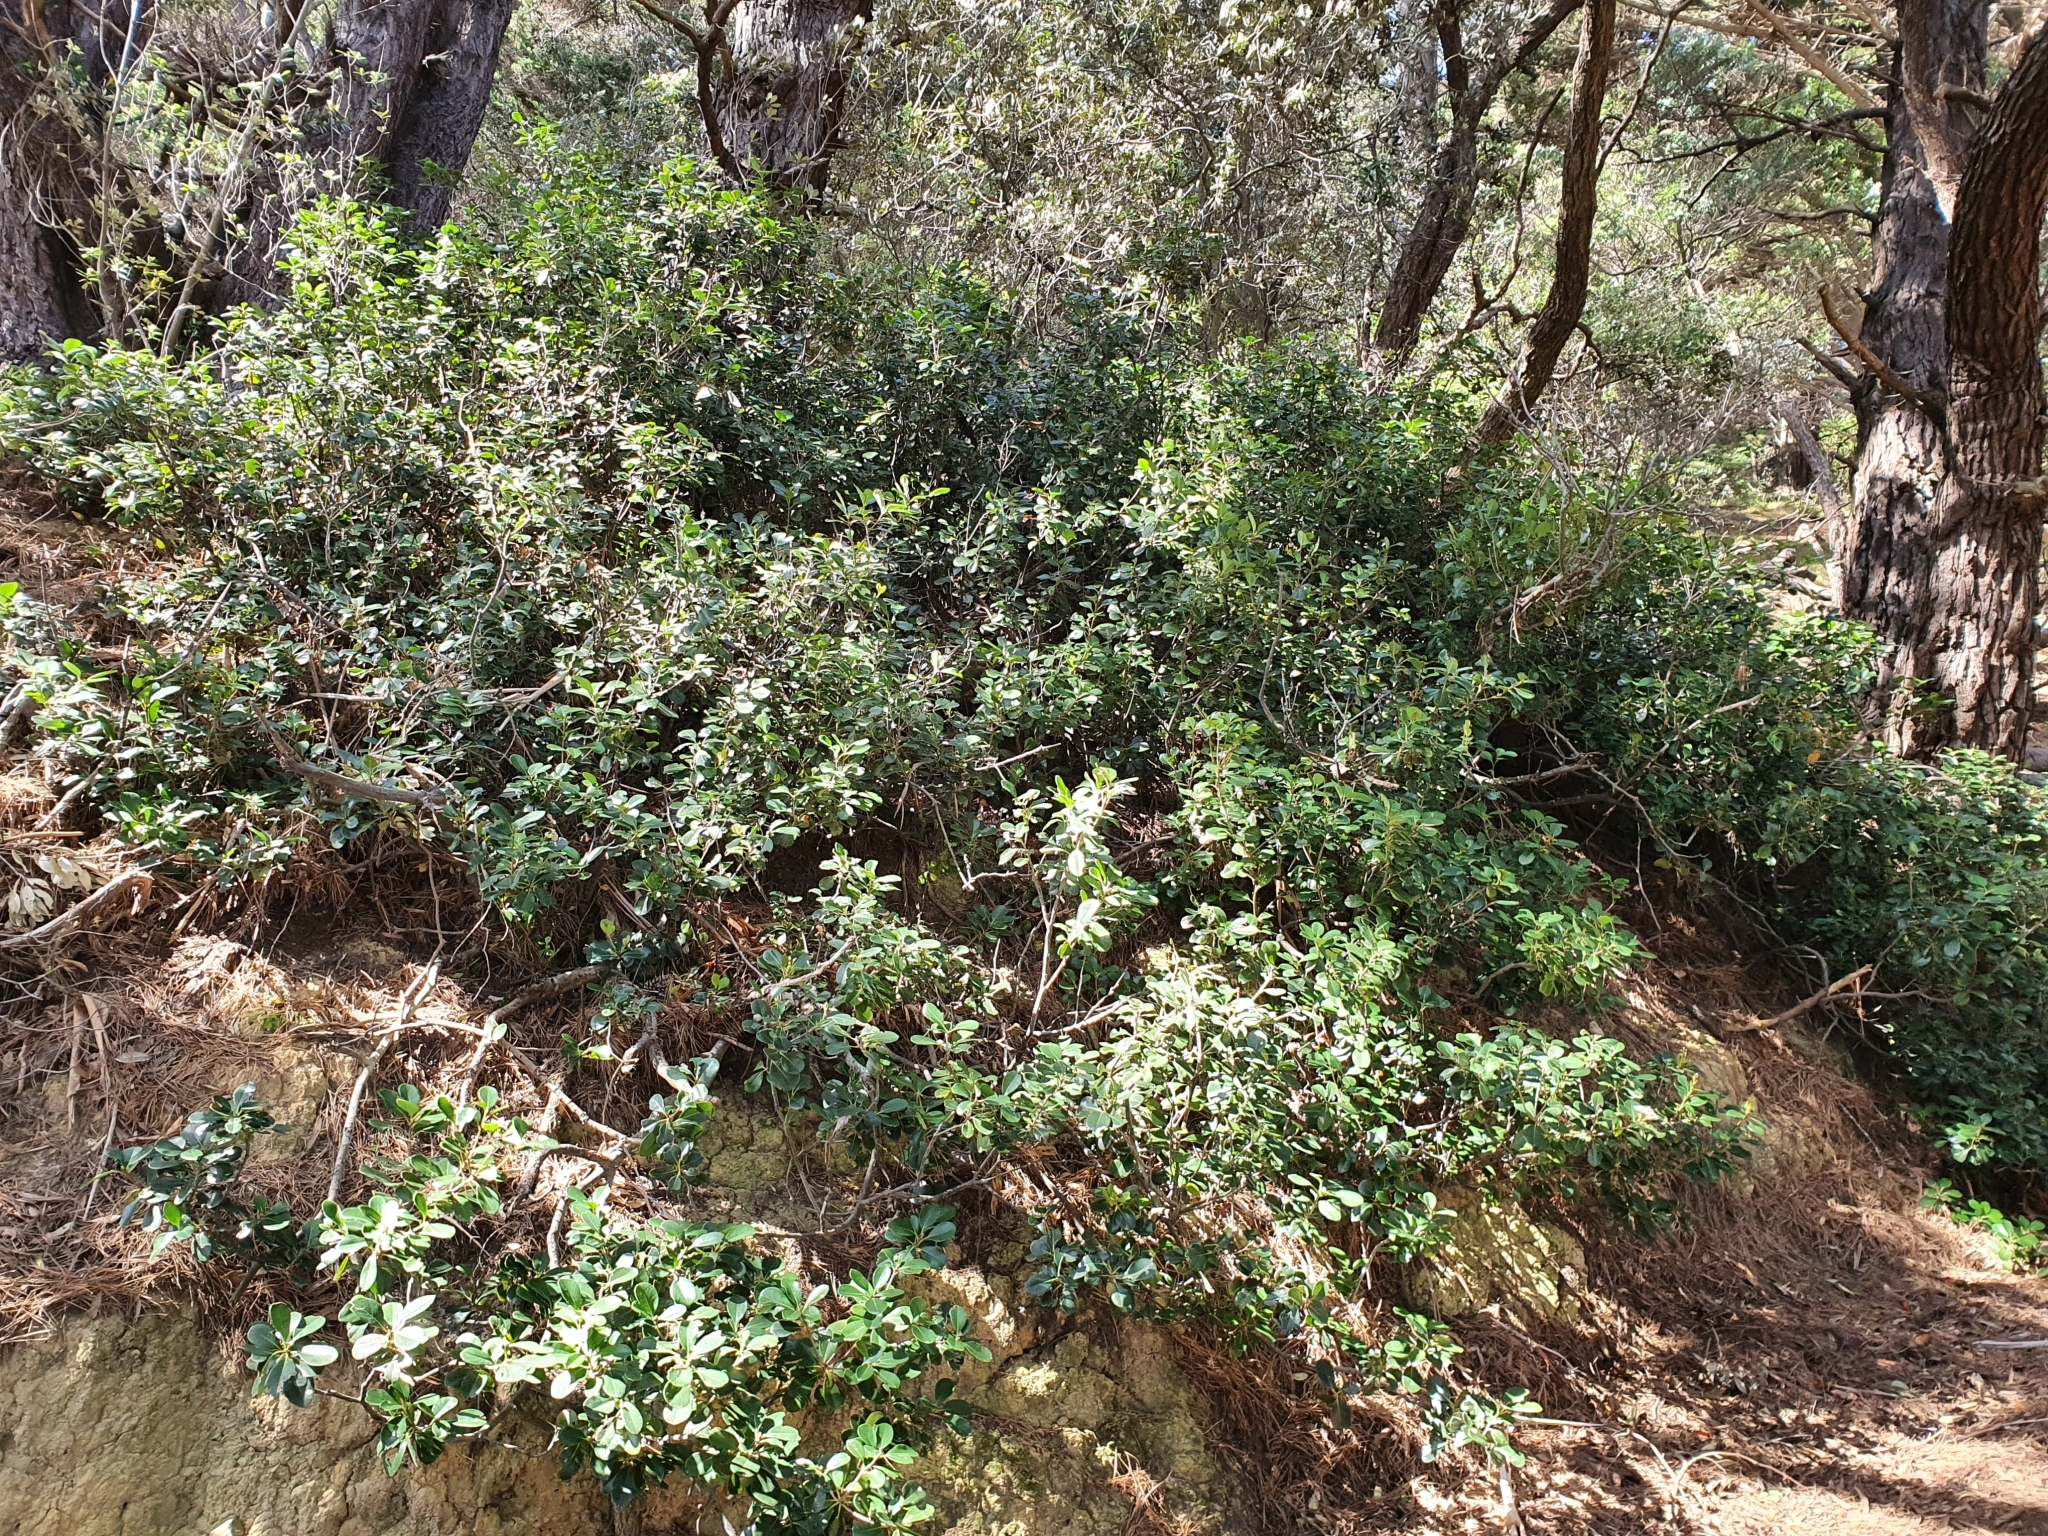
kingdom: Plantae
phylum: Tracheophyta
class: Magnoliopsida
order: Rosales
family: Rosaceae
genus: Rhaphiolepis
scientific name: Rhaphiolepis indica
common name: India-hawthorn
